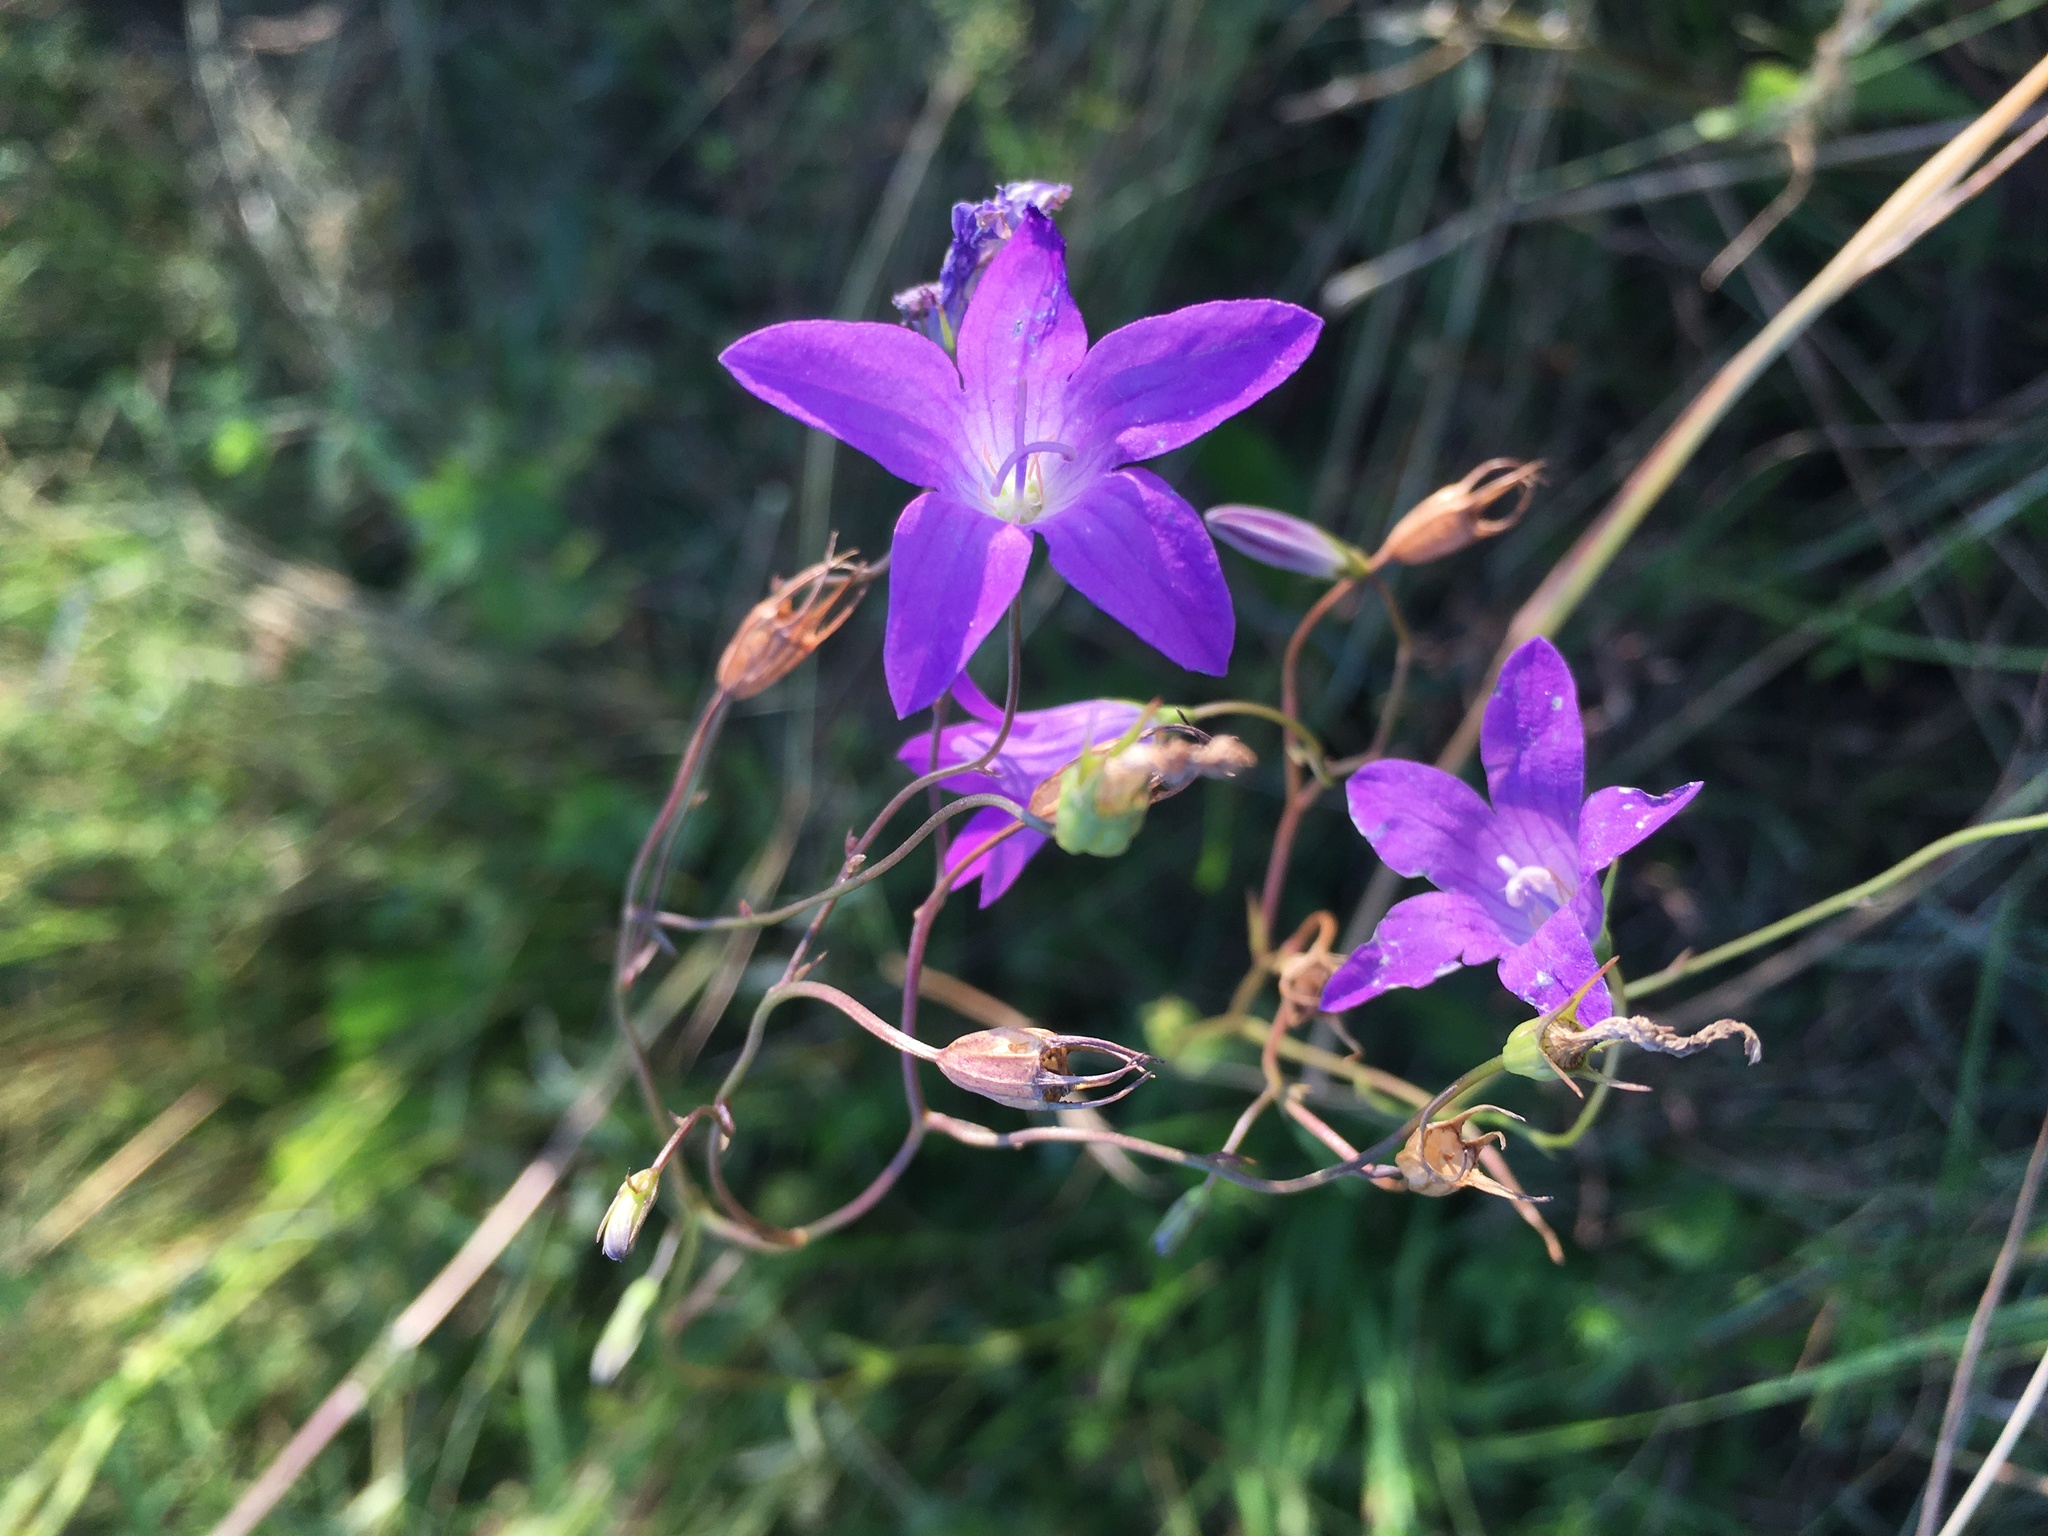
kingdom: Plantae
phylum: Tracheophyta
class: Magnoliopsida
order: Asterales
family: Campanulaceae
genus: Campanula
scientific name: Campanula patula
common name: Spreading bellflower
